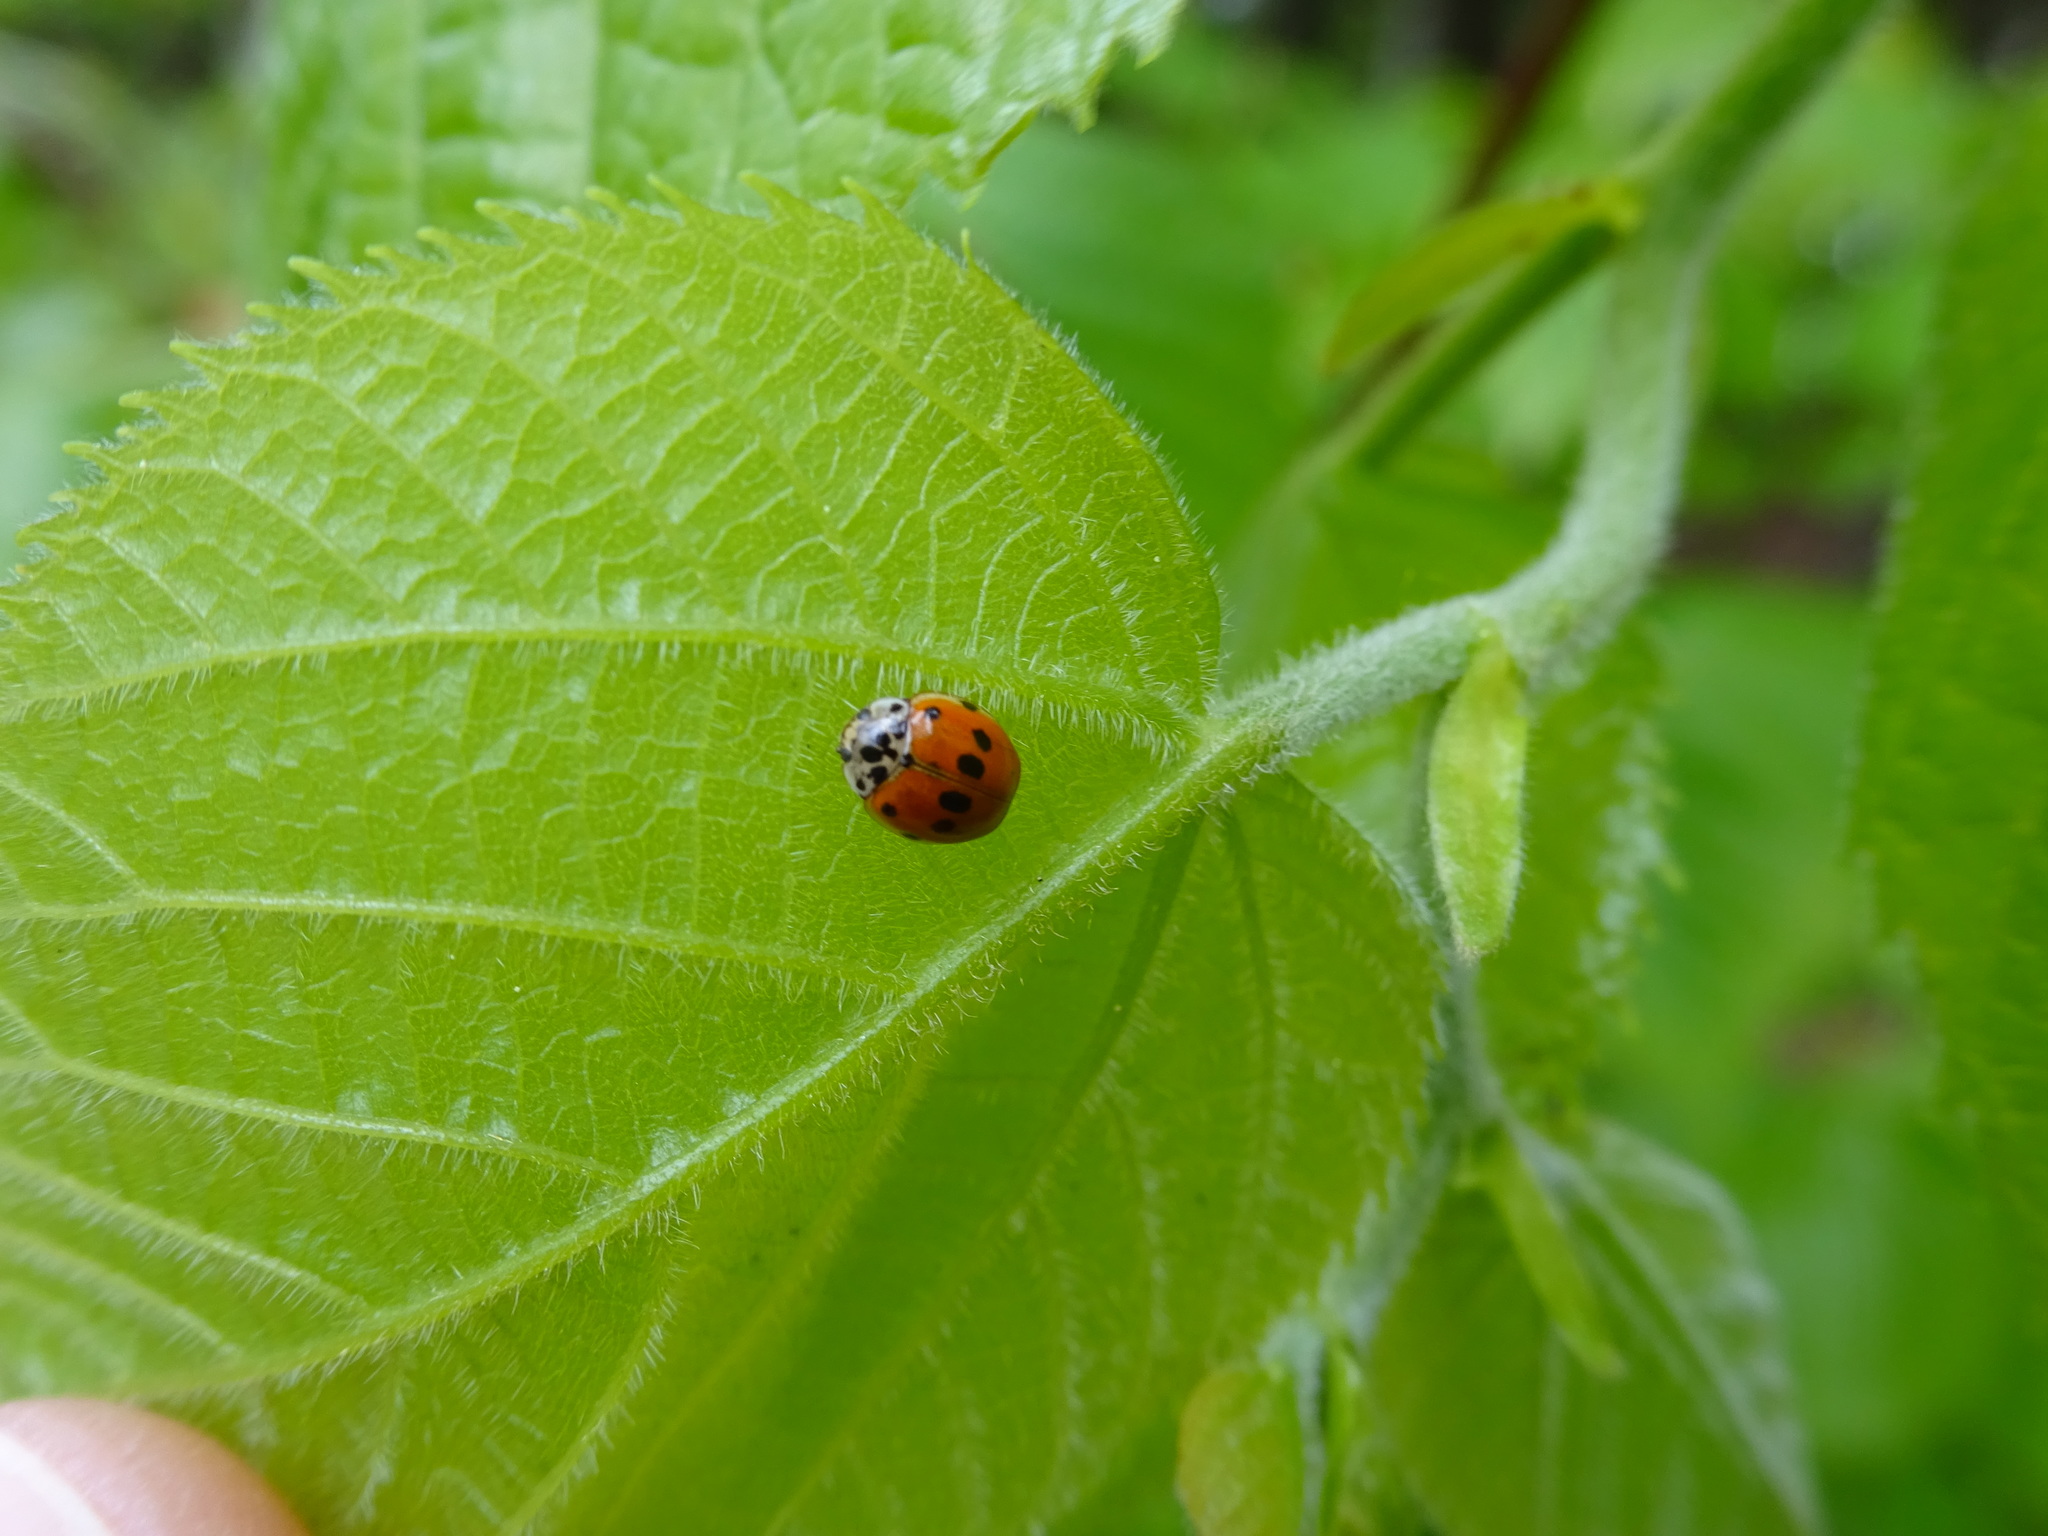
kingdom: Animalia
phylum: Arthropoda
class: Insecta
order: Coleoptera
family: Coccinellidae
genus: Adalia
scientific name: Adalia decempunctata
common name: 10-spot ladybird
